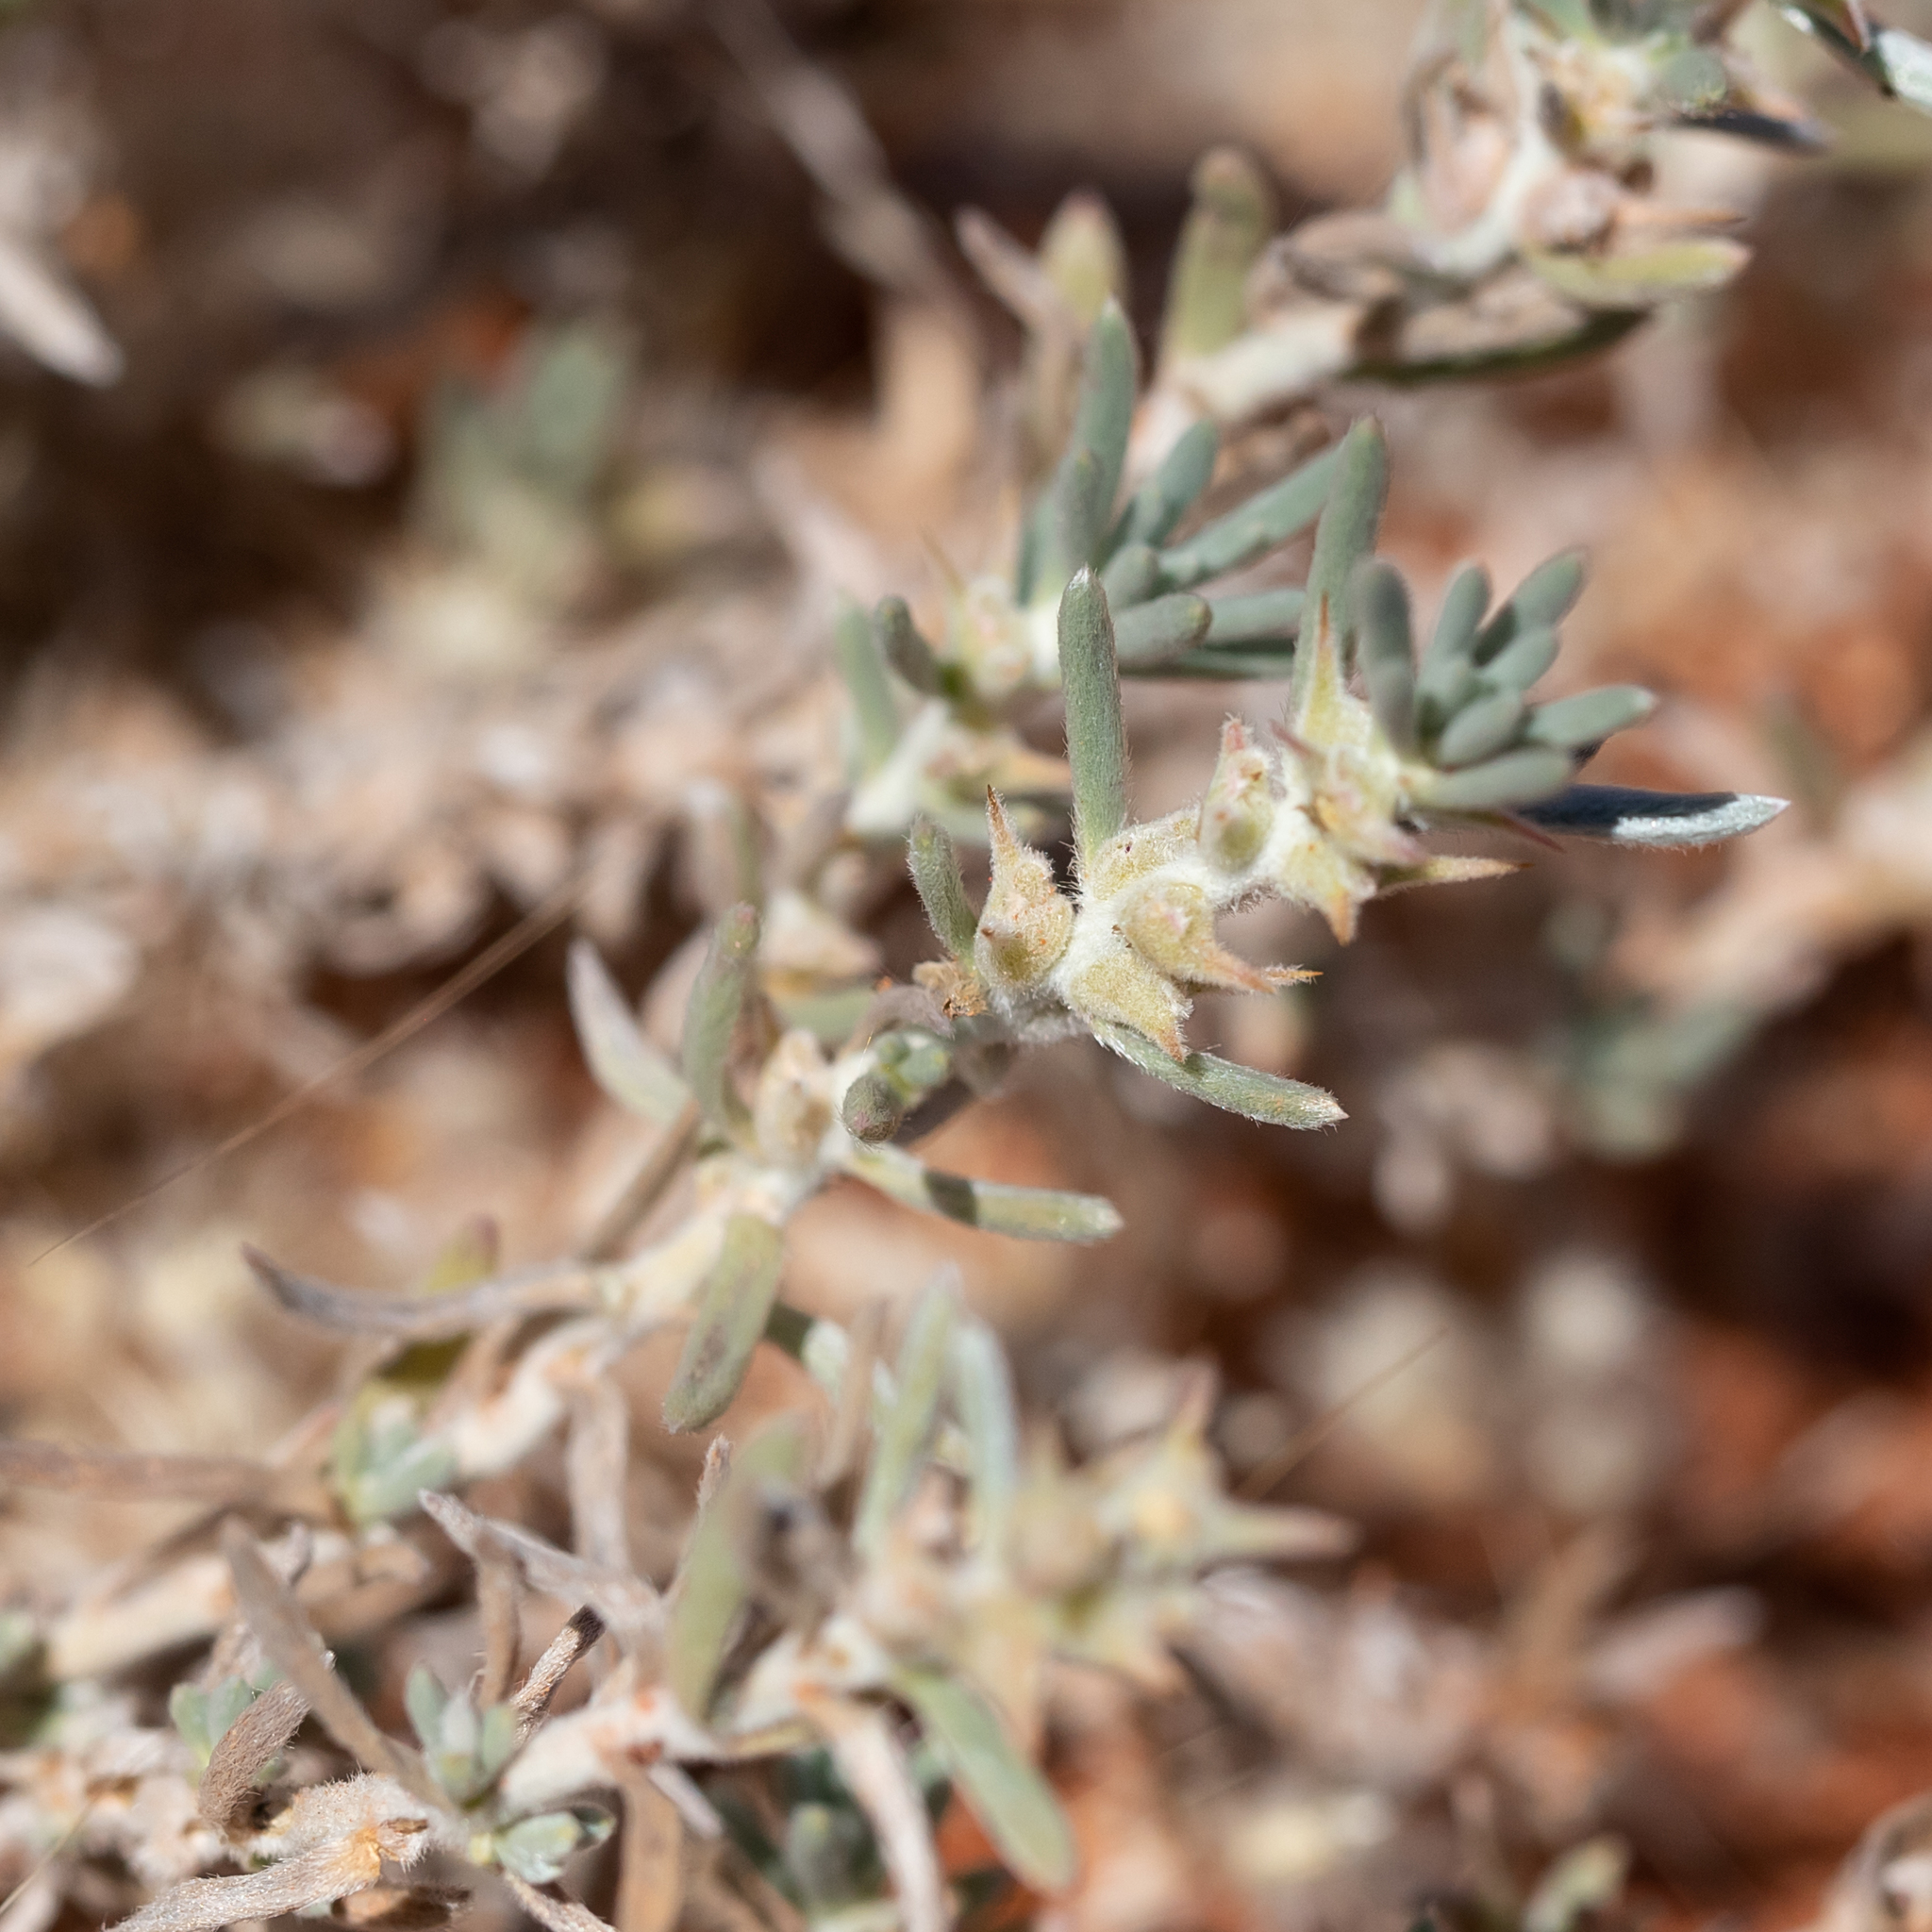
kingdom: Plantae
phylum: Tracheophyta
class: Magnoliopsida
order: Caryophyllales
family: Amaranthaceae
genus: Sclerolaena
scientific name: Sclerolaena diacantha
